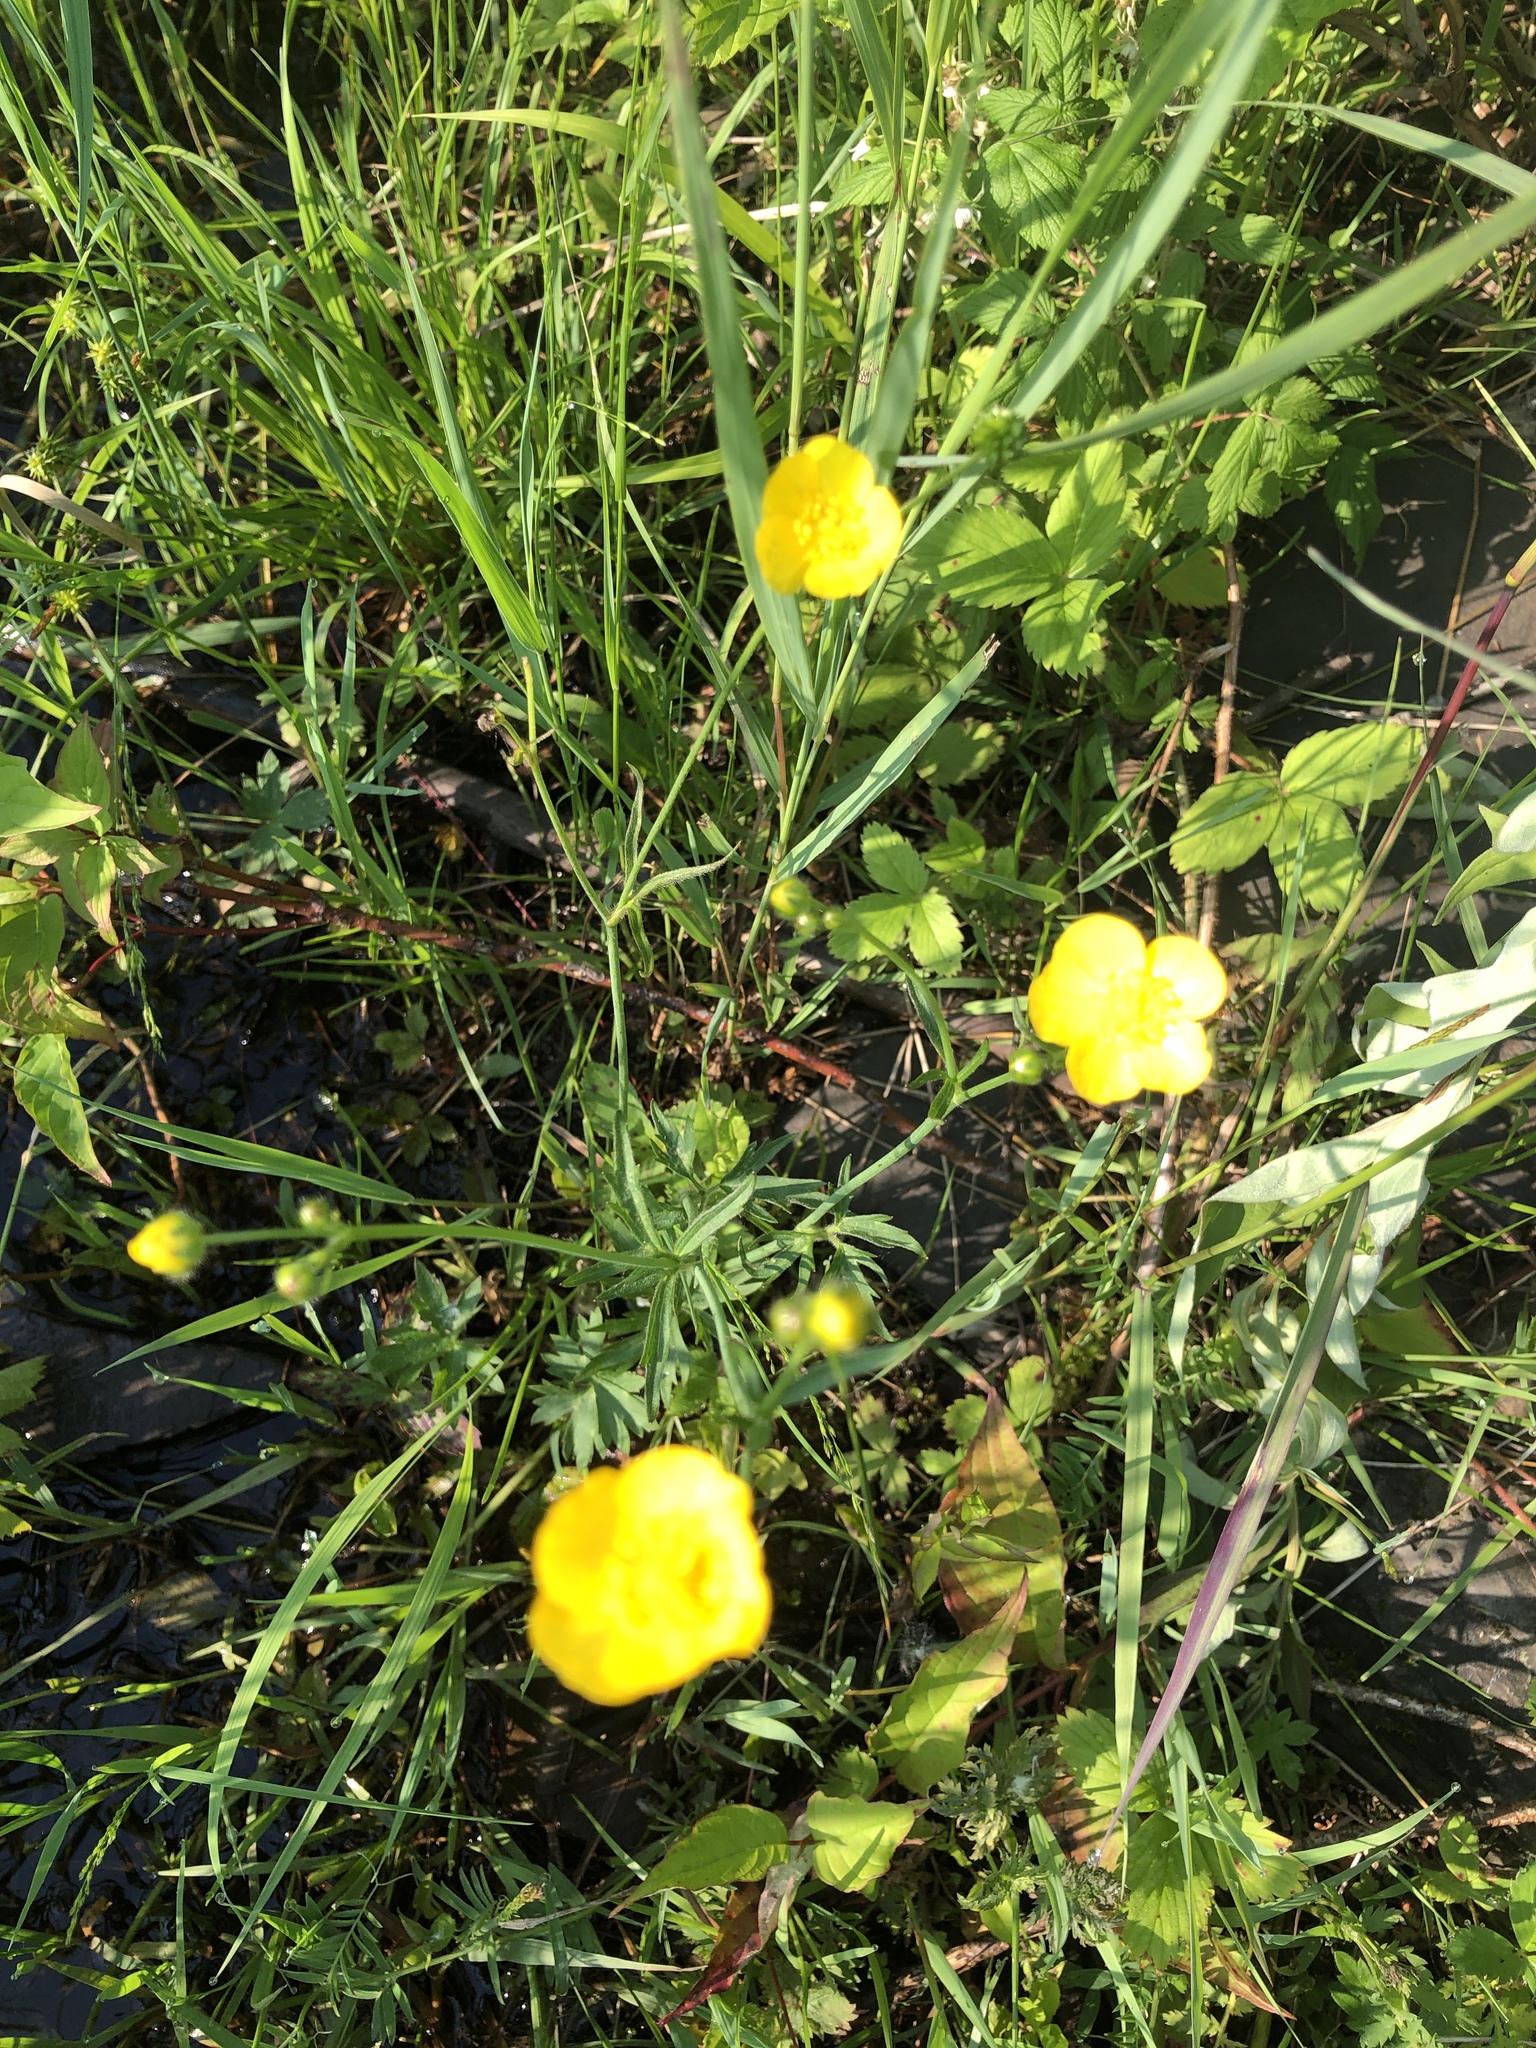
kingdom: Plantae
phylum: Tracheophyta
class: Magnoliopsida
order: Ranunculales
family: Ranunculaceae
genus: Ranunculus
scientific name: Ranunculus acris
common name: Meadow buttercup
